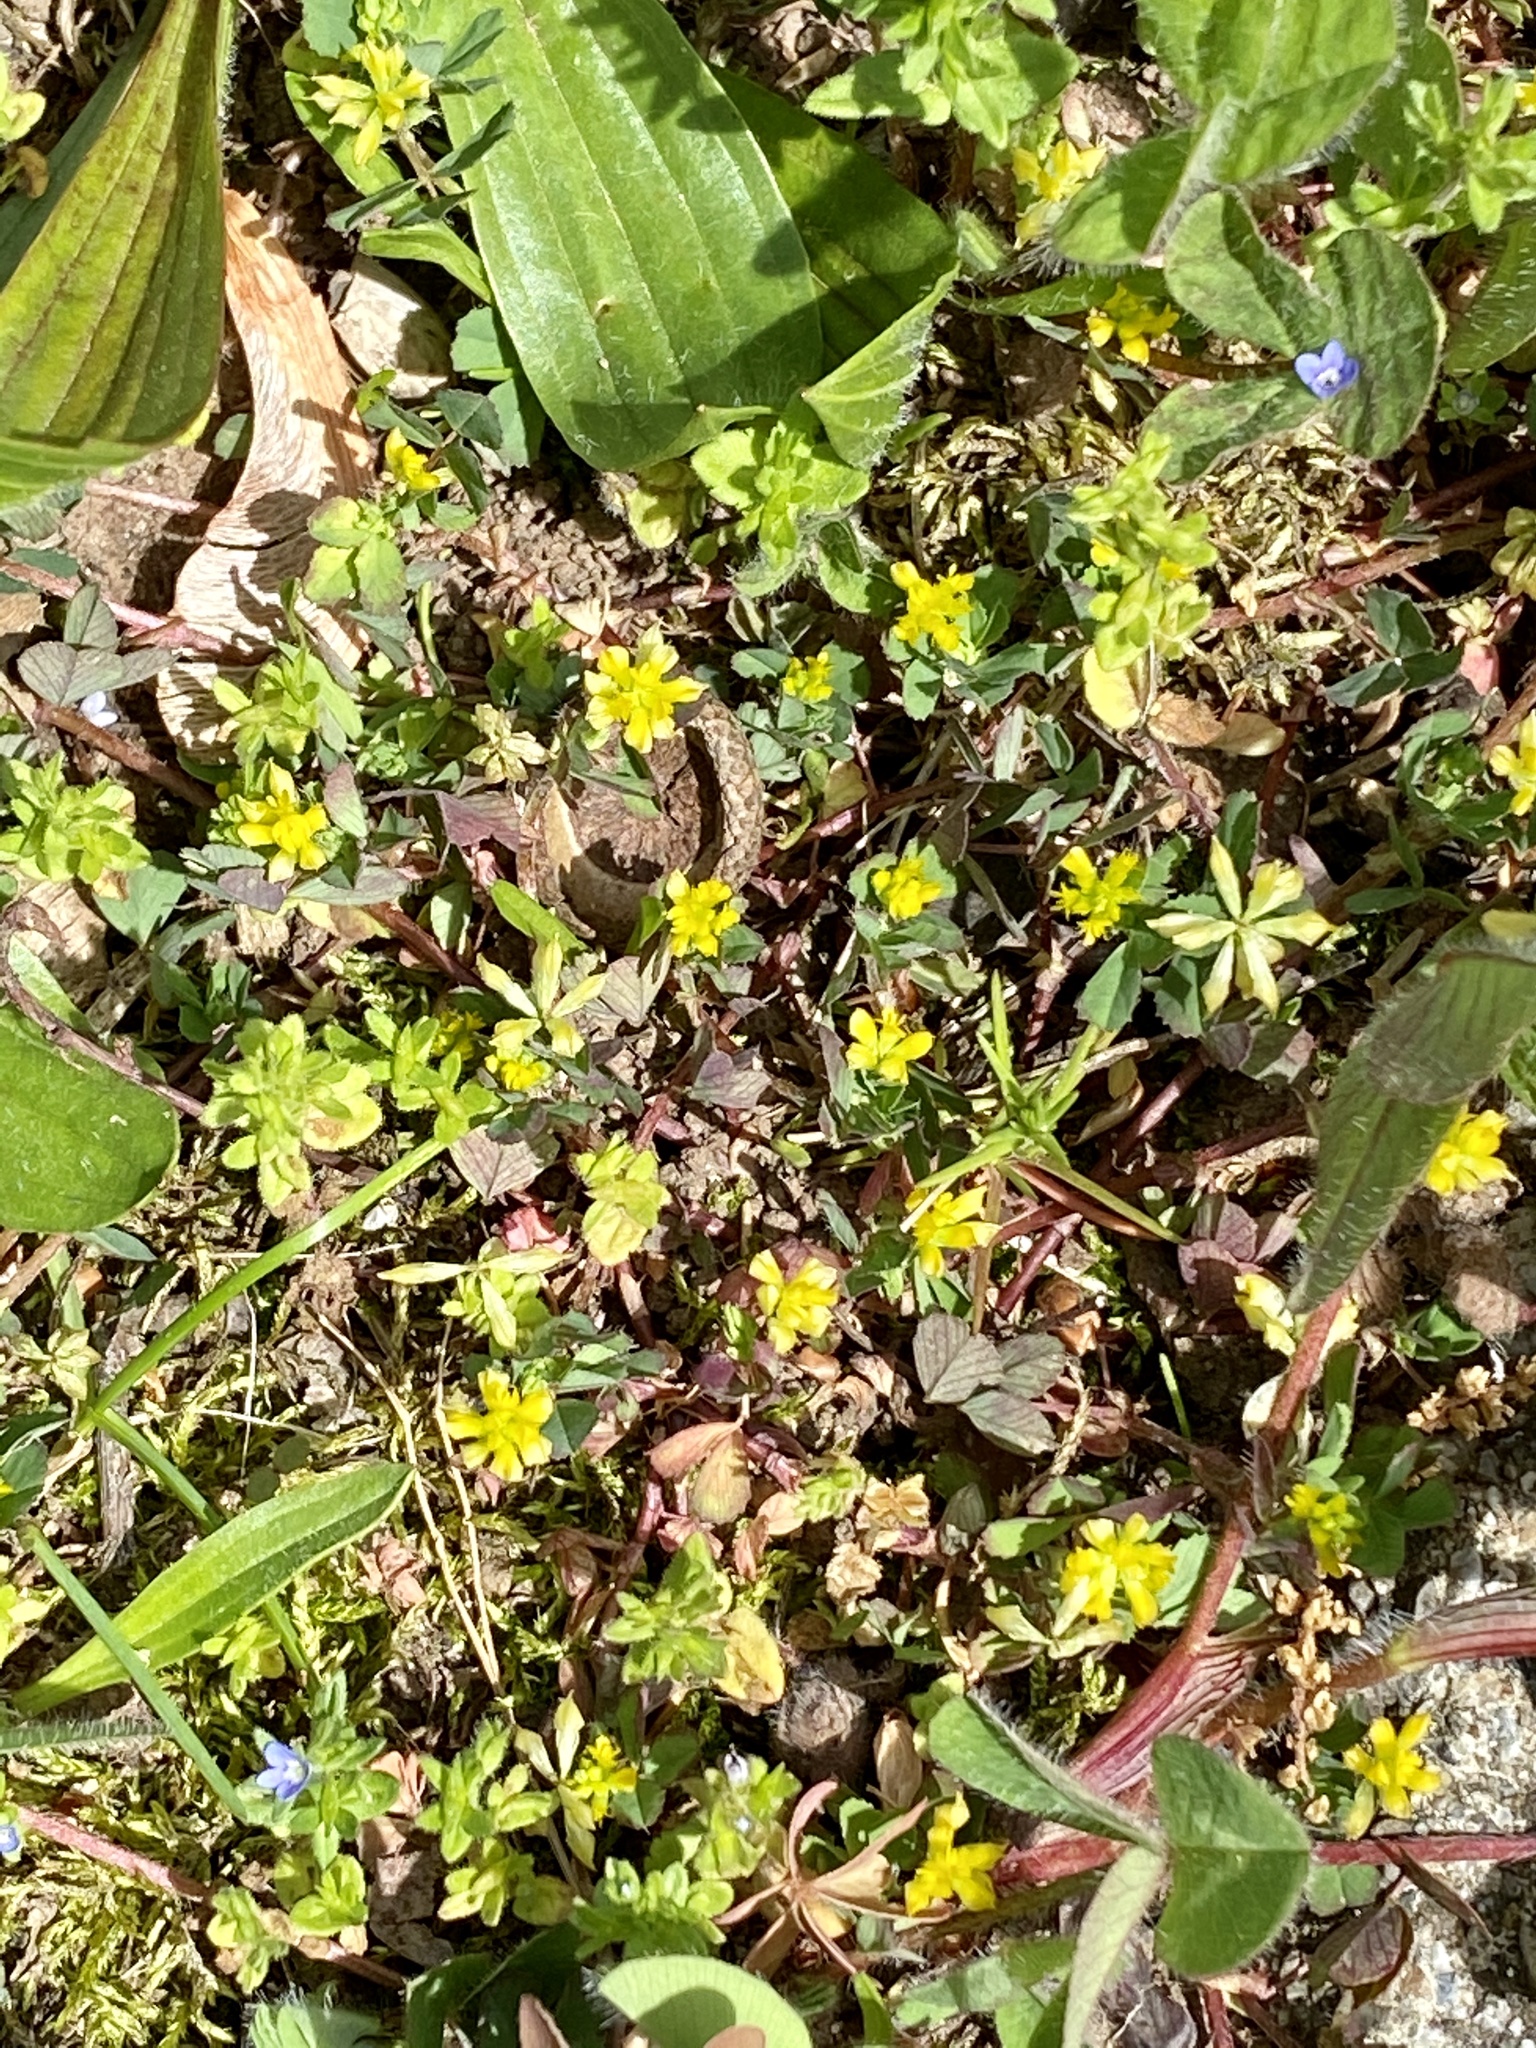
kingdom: Plantae
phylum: Tracheophyta
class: Magnoliopsida
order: Fabales
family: Fabaceae
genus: Trifolium
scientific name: Trifolium dubium
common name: Suckling clover
